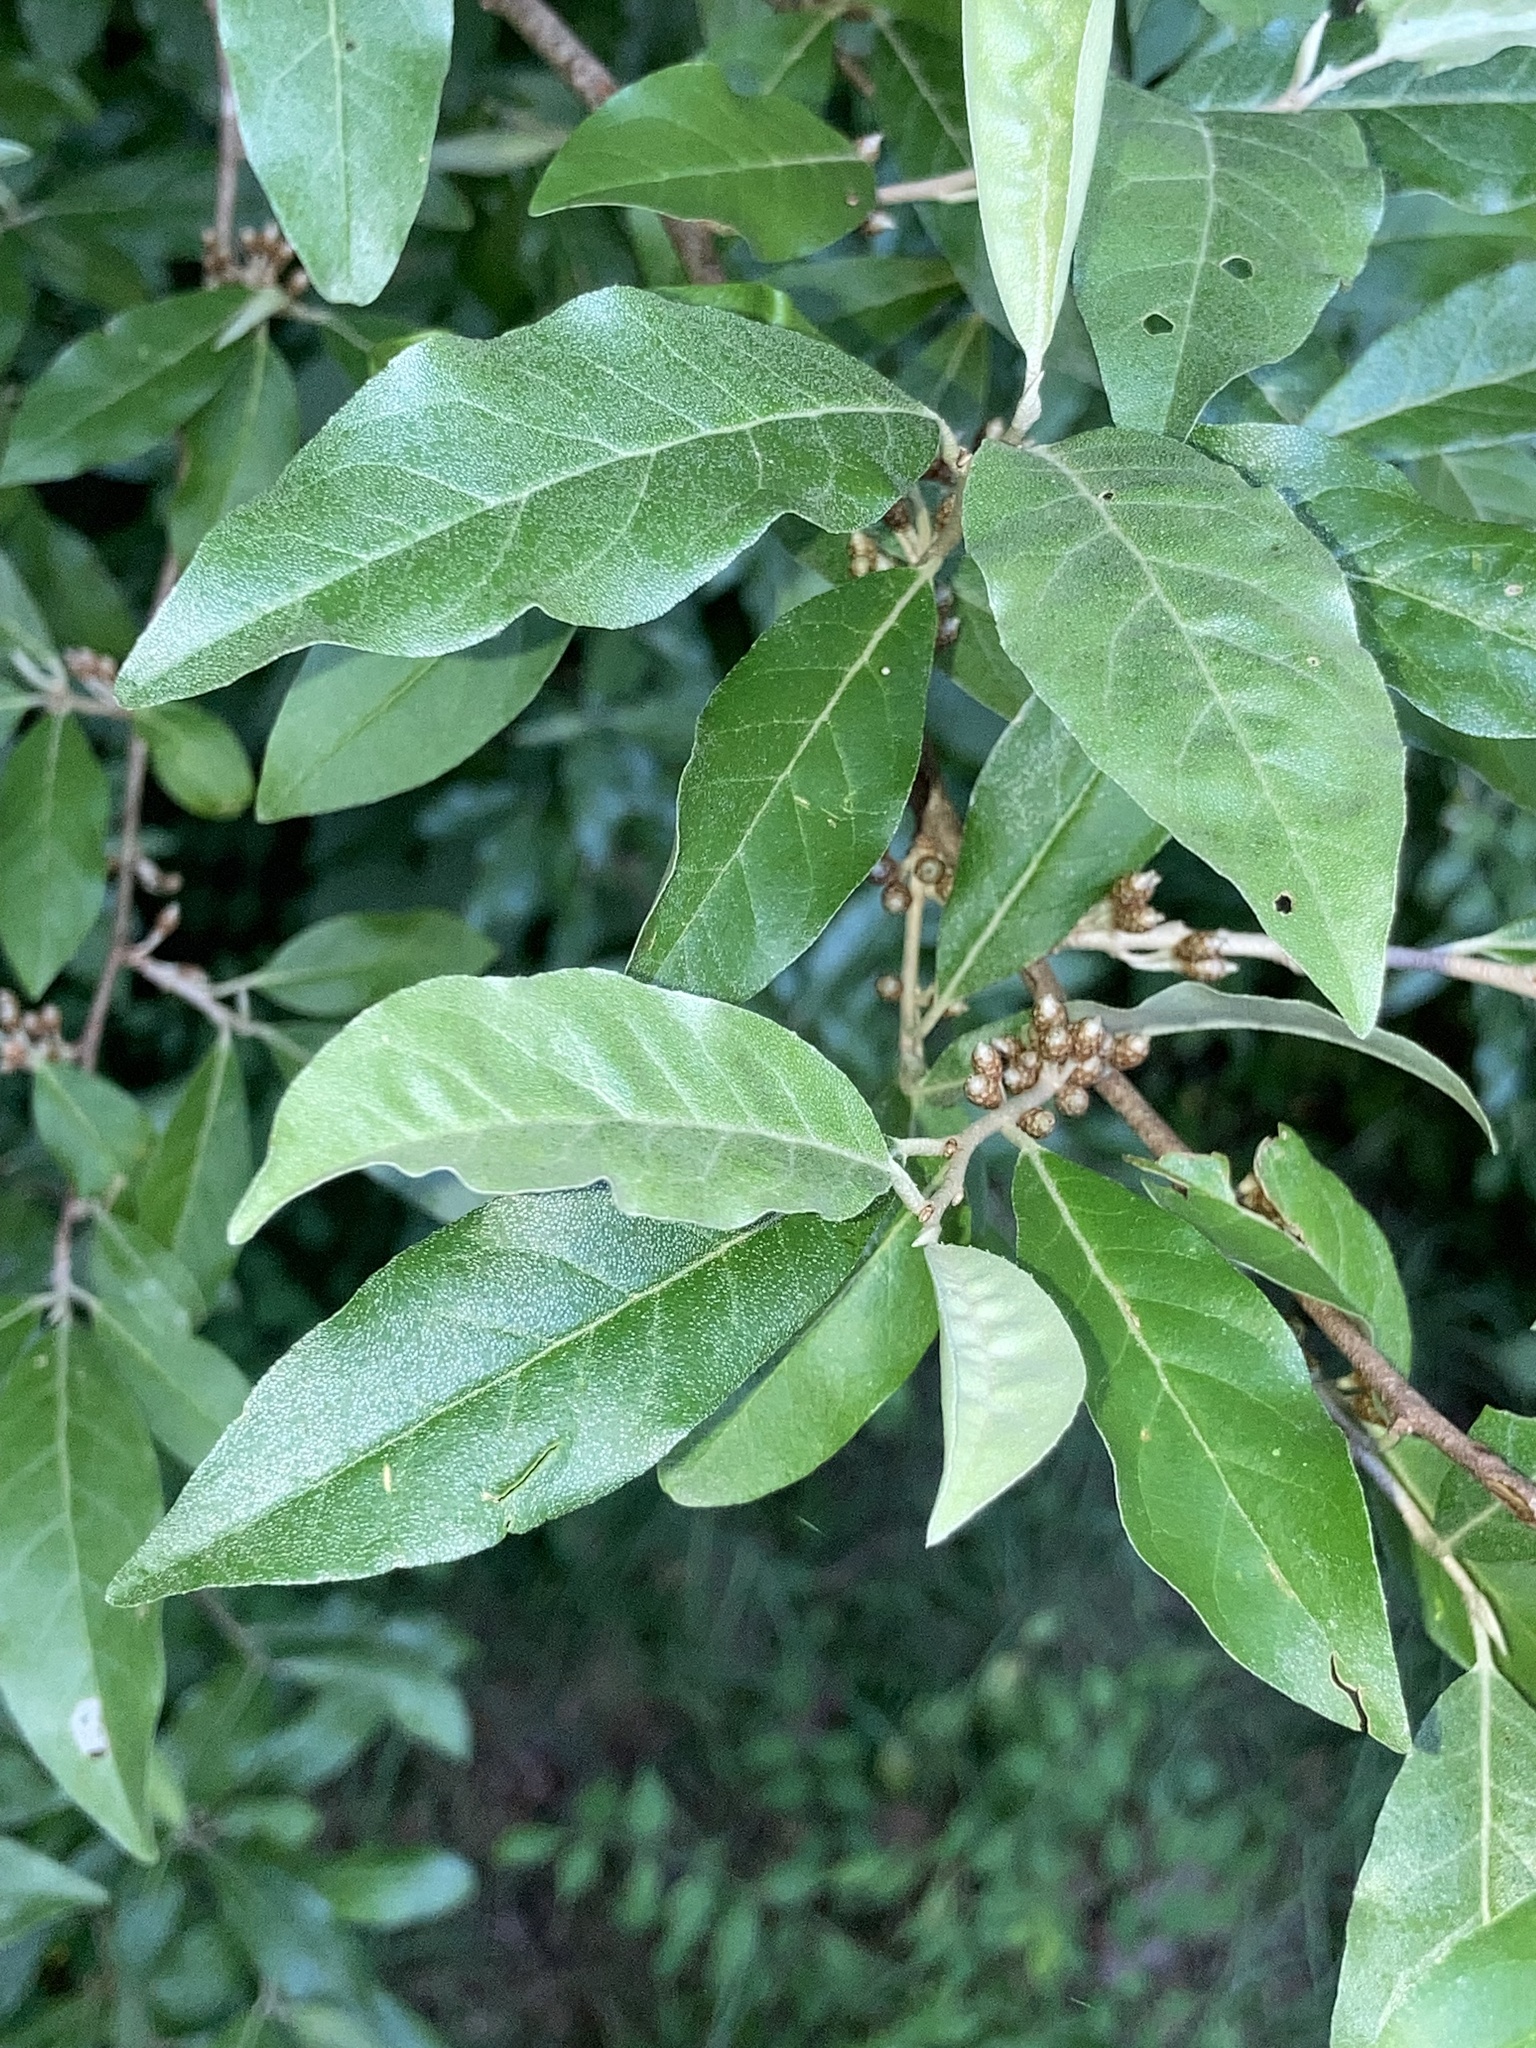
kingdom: Plantae
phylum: Tracheophyta
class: Magnoliopsida
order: Rosales
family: Elaeagnaceae
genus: Elaeagnus
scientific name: Elaeagnus umbellata
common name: Autumn olive
